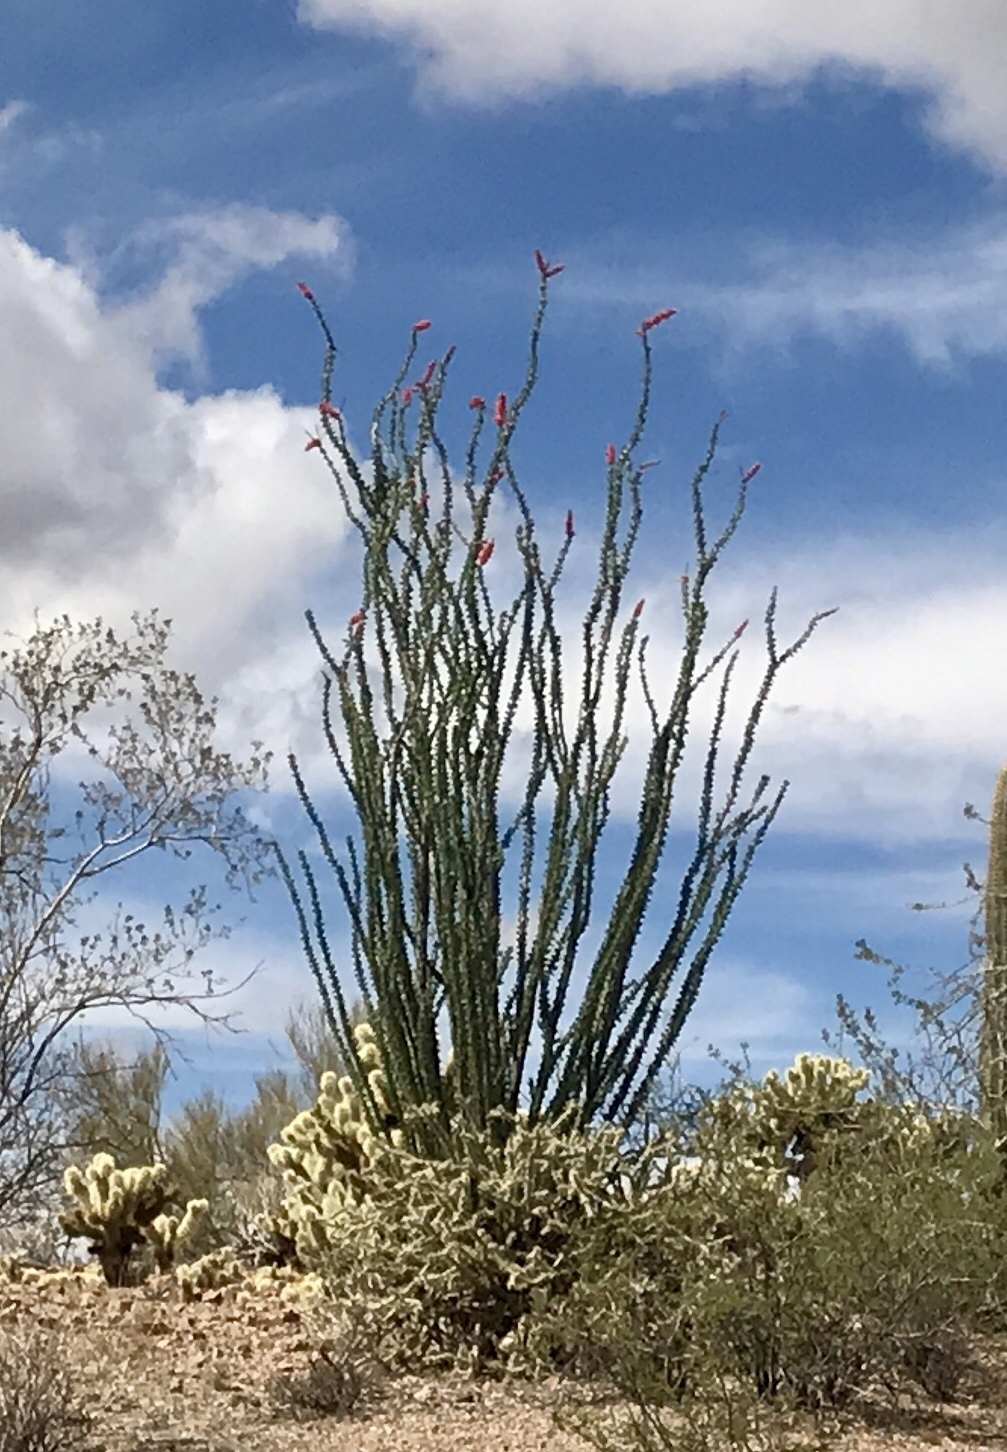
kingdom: Plantae
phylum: Tracheophyta
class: Magnoliopsida
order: Ericales
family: Fouquieriaceae
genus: Fouquieria
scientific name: Fouquieria splendens
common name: Vine-cactus
